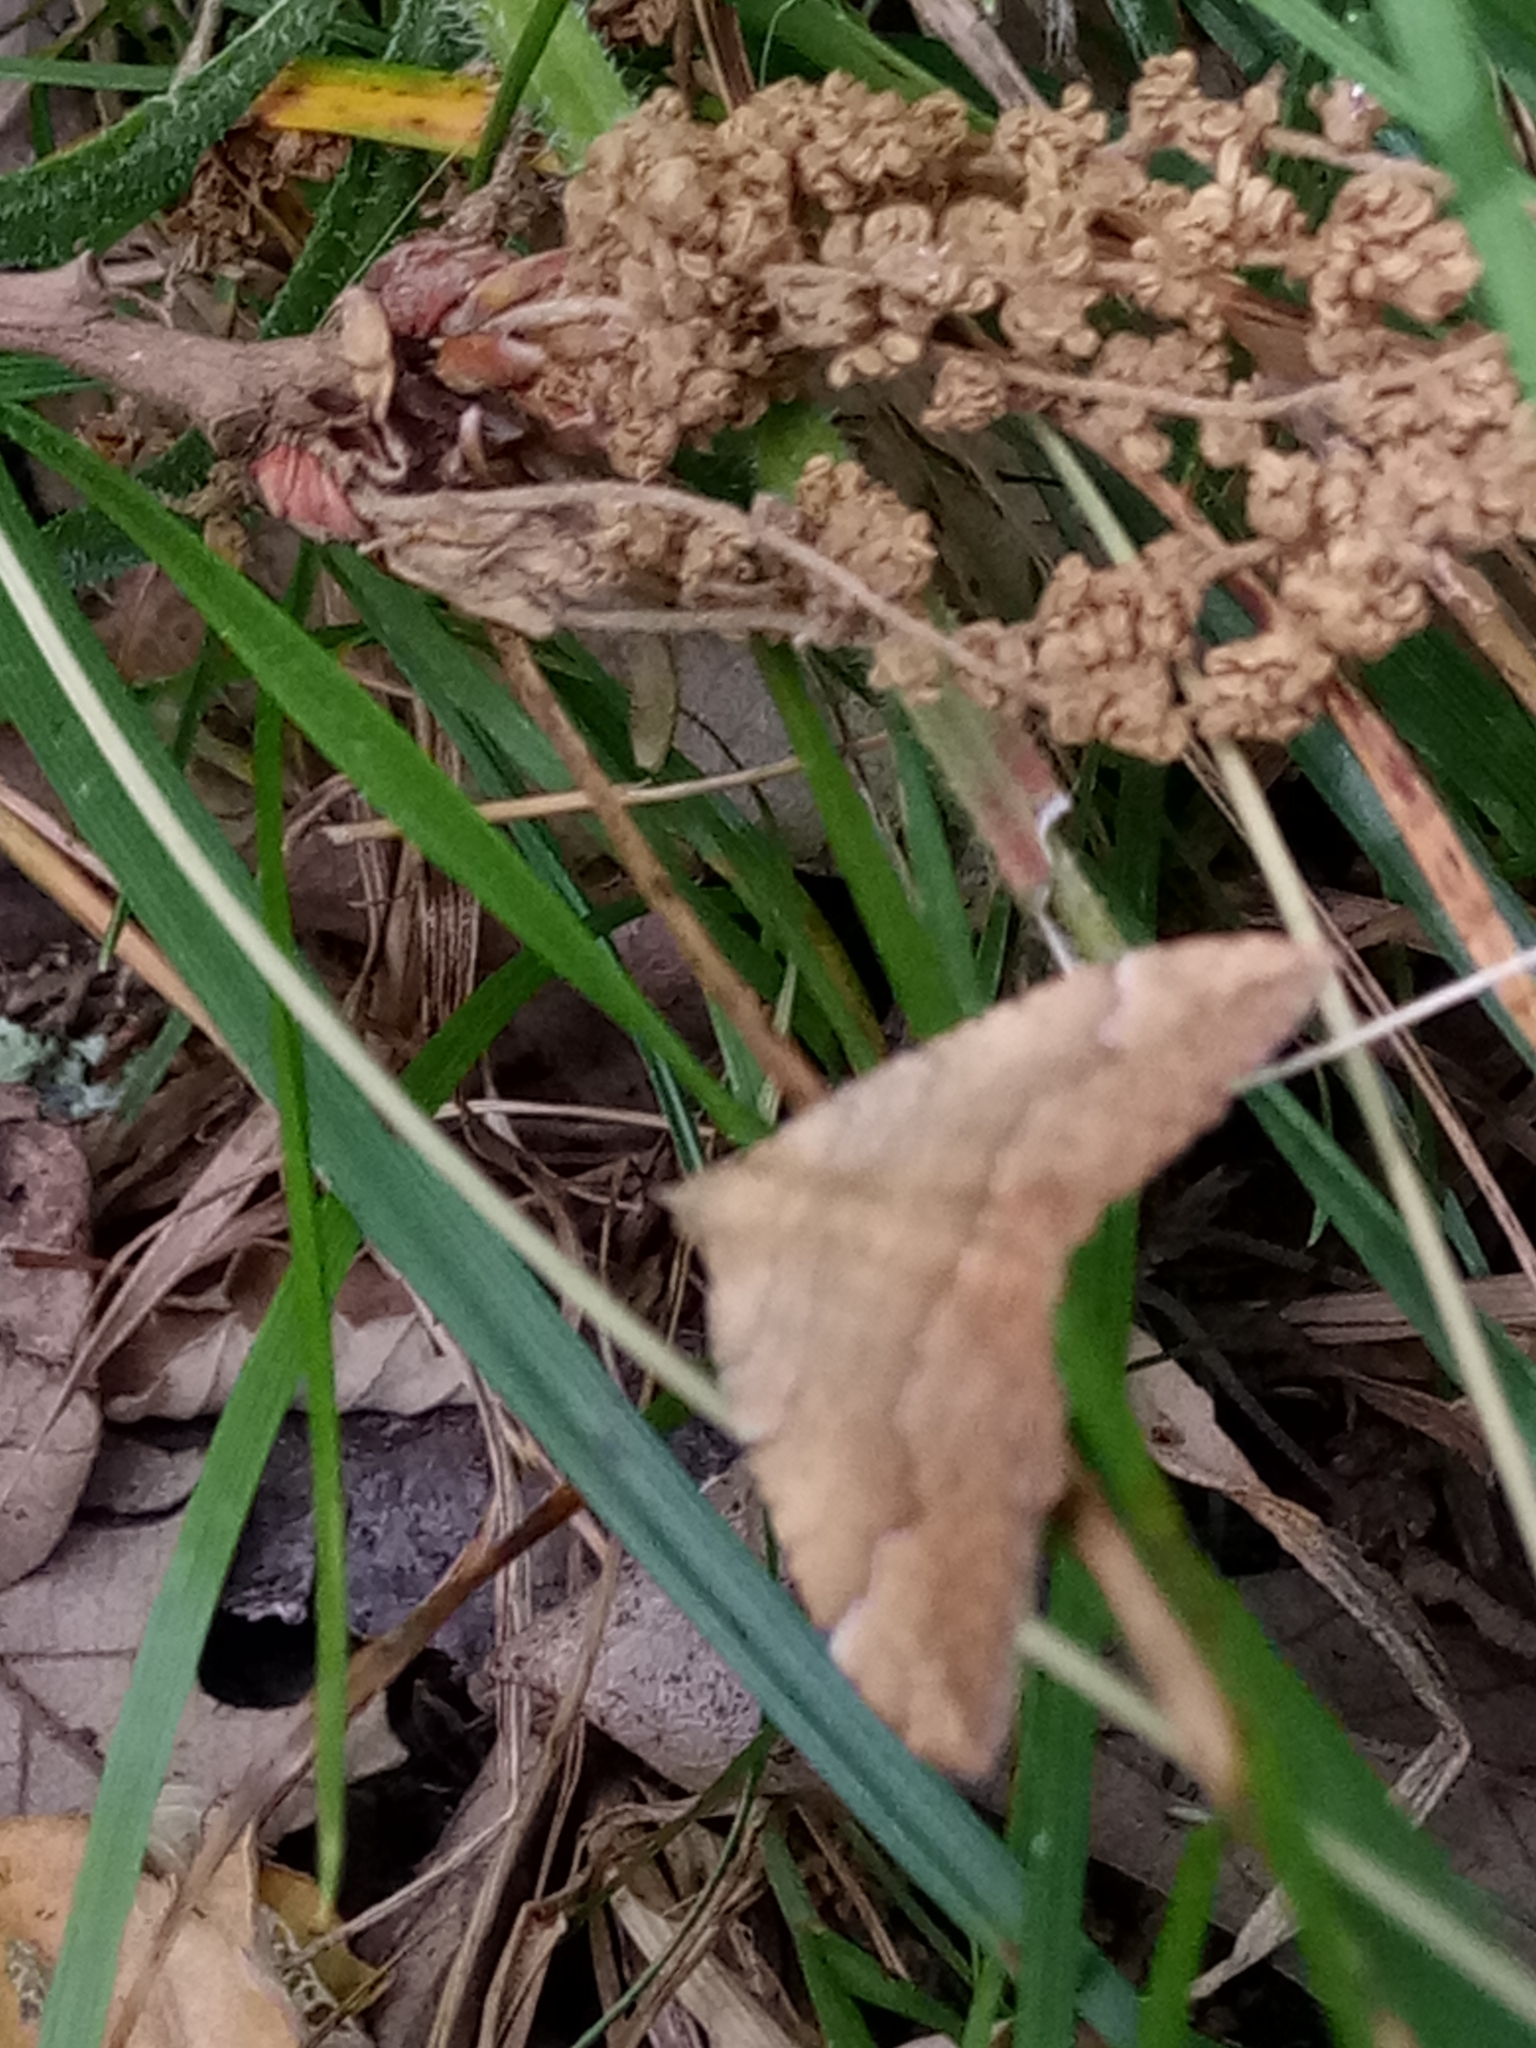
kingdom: Animalia
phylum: Arthropoda
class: Insecta
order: Lepidoptera
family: Geometridae
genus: Camptogramma
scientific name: Camptogramma bilineata
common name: Yellow shell
